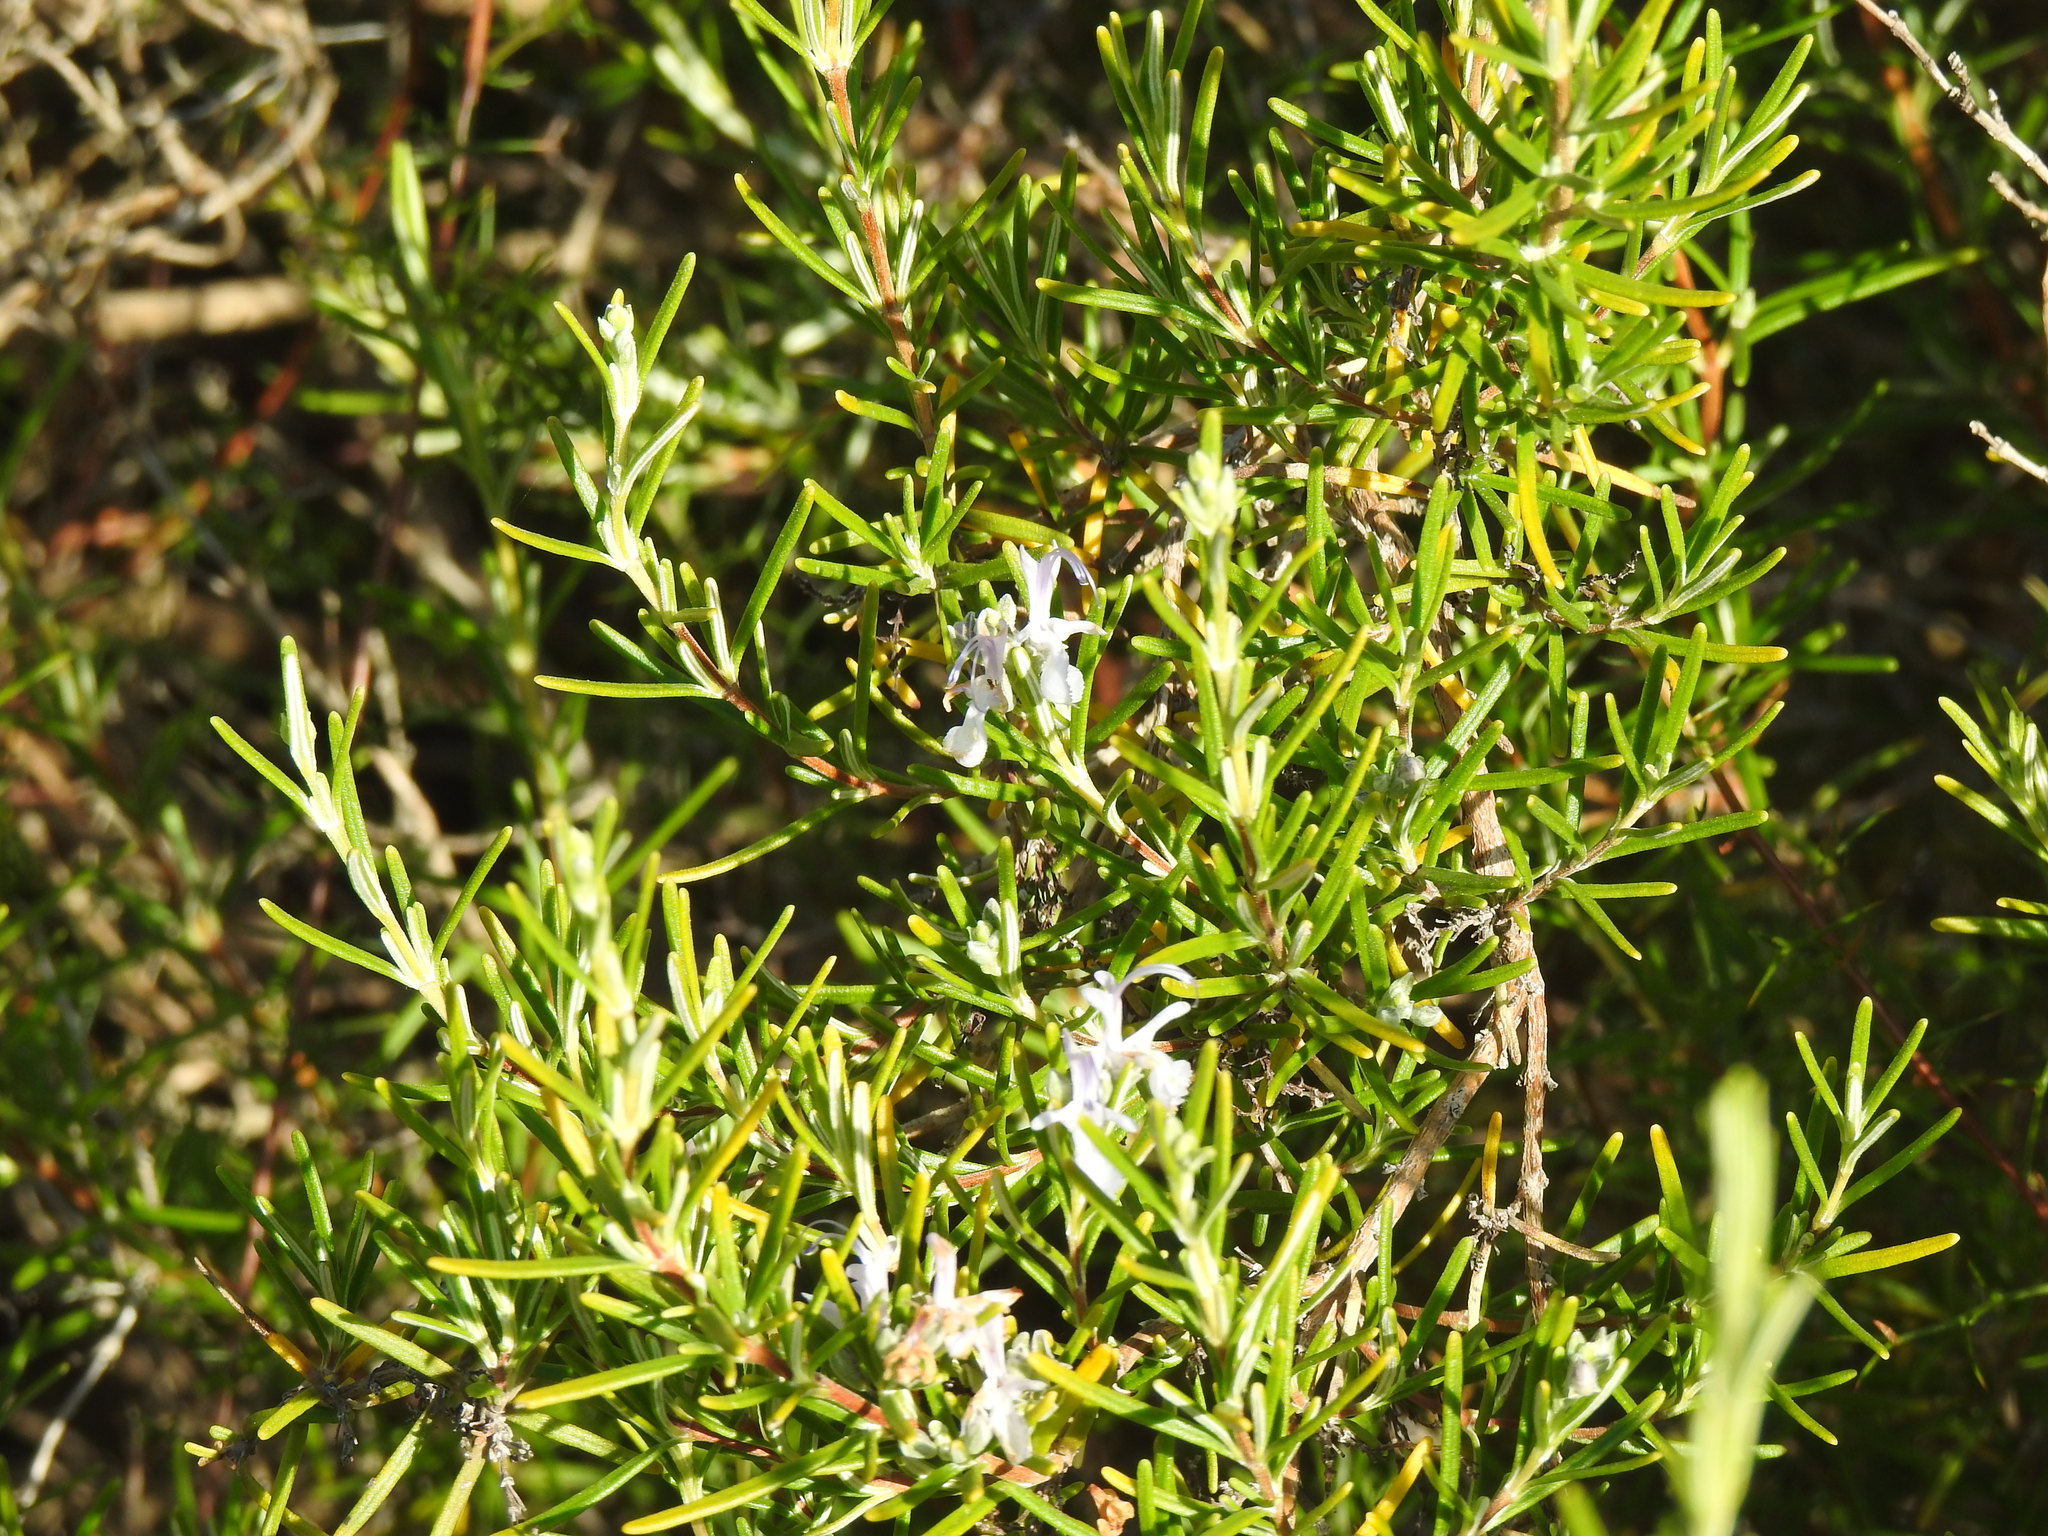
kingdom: Plantae
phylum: Tracheophyta
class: Magnoliopsida
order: Lamiales
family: Lamiaceae
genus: Salvia
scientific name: Salvia rosmarinus
